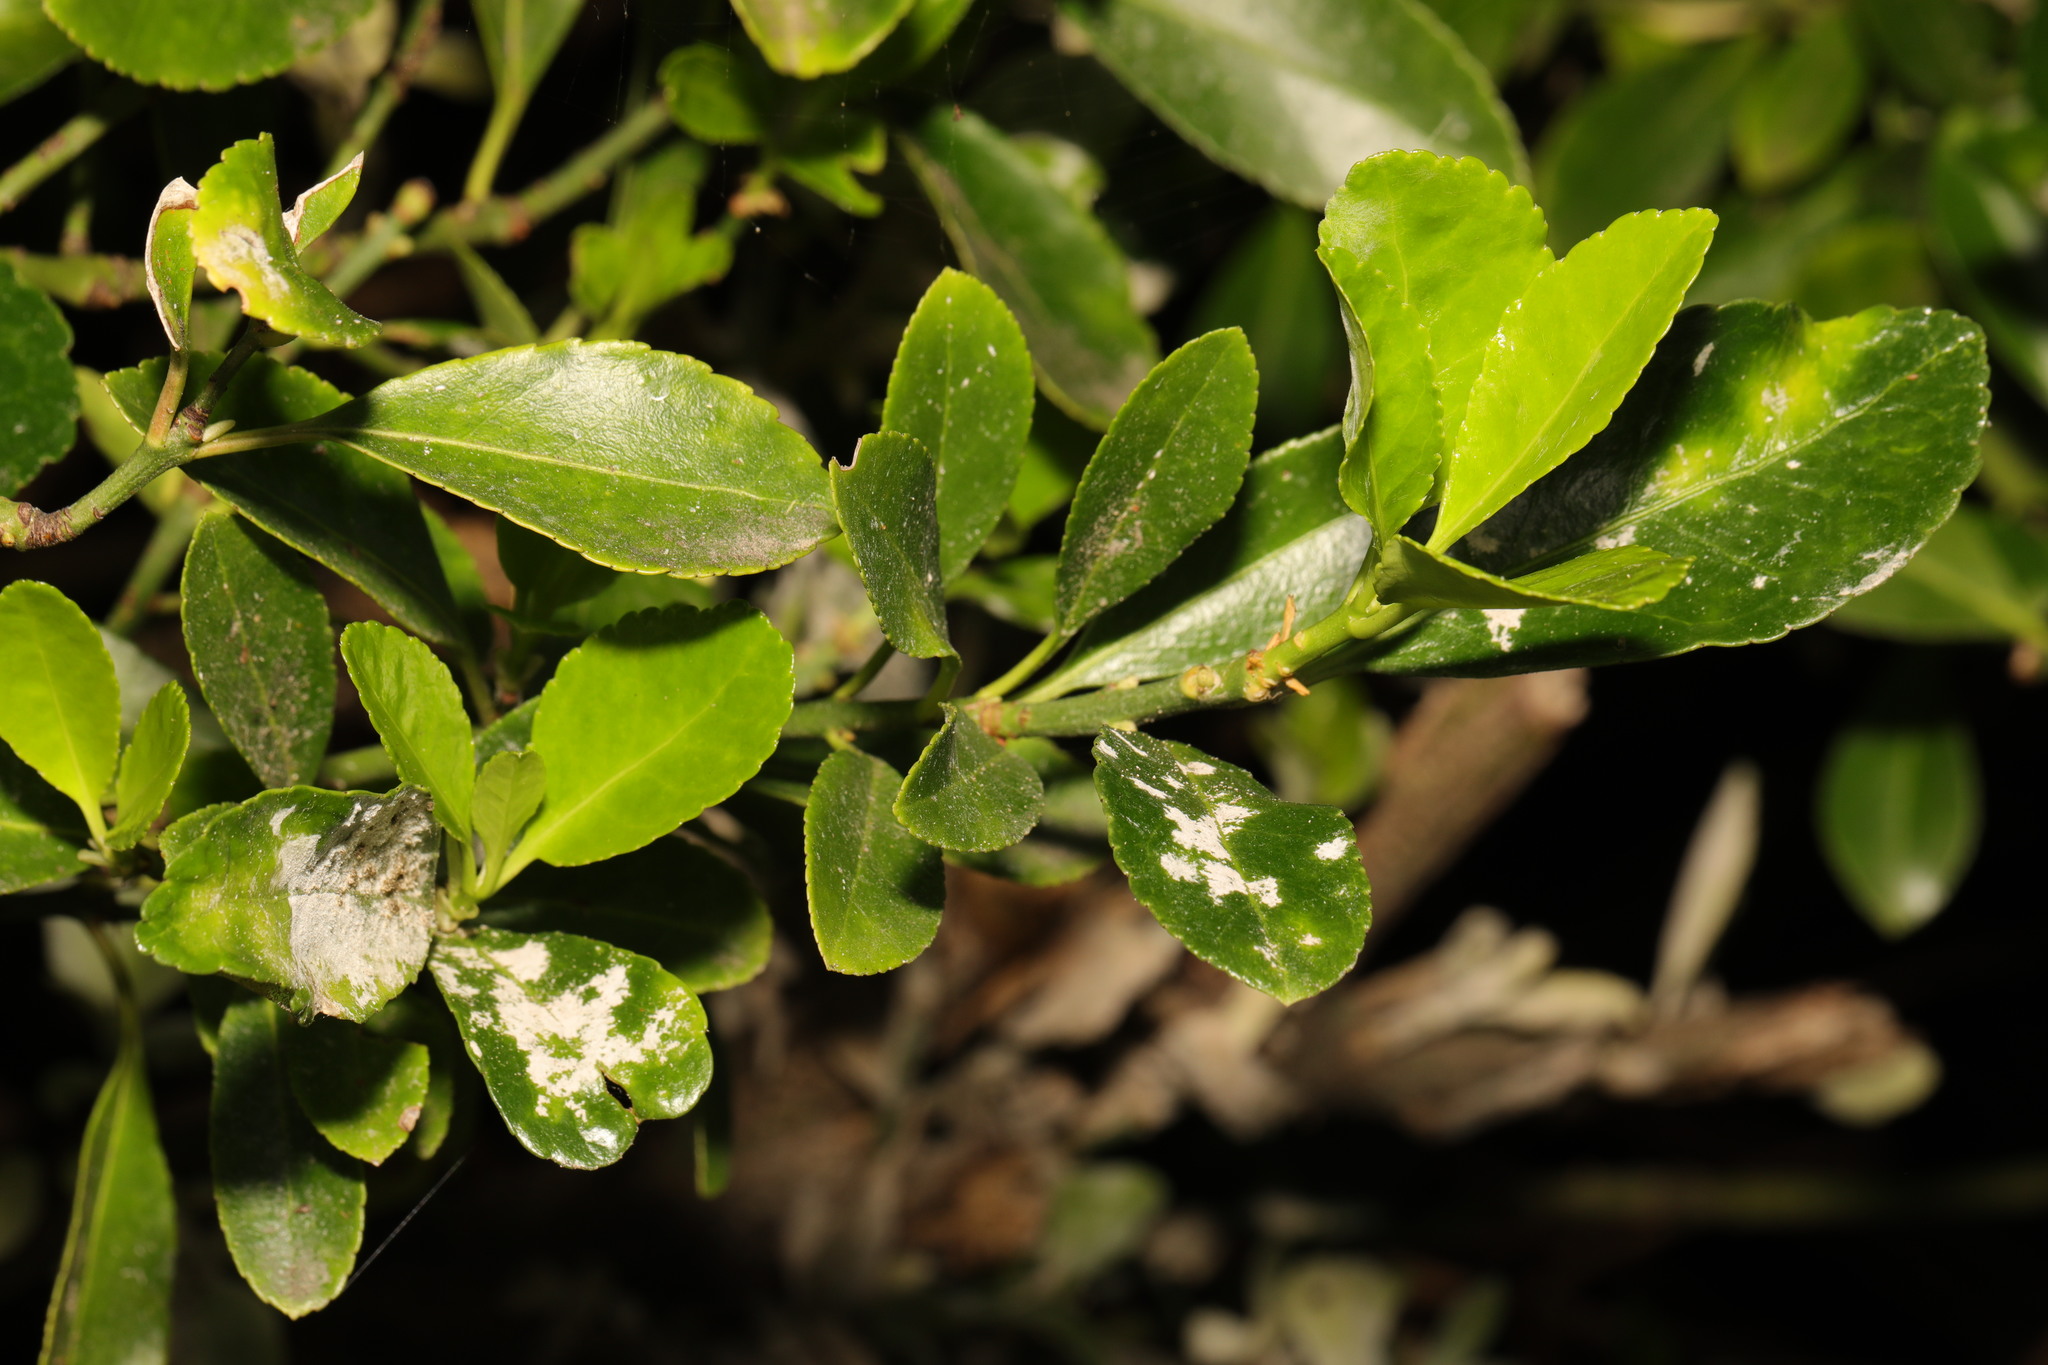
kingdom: Plantae
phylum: Tracheophyta
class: Magnoliopsida
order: Celastrales
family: Celastraceae
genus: Euonymus
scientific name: Euonymus japonicus
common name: Japanese spindletree
